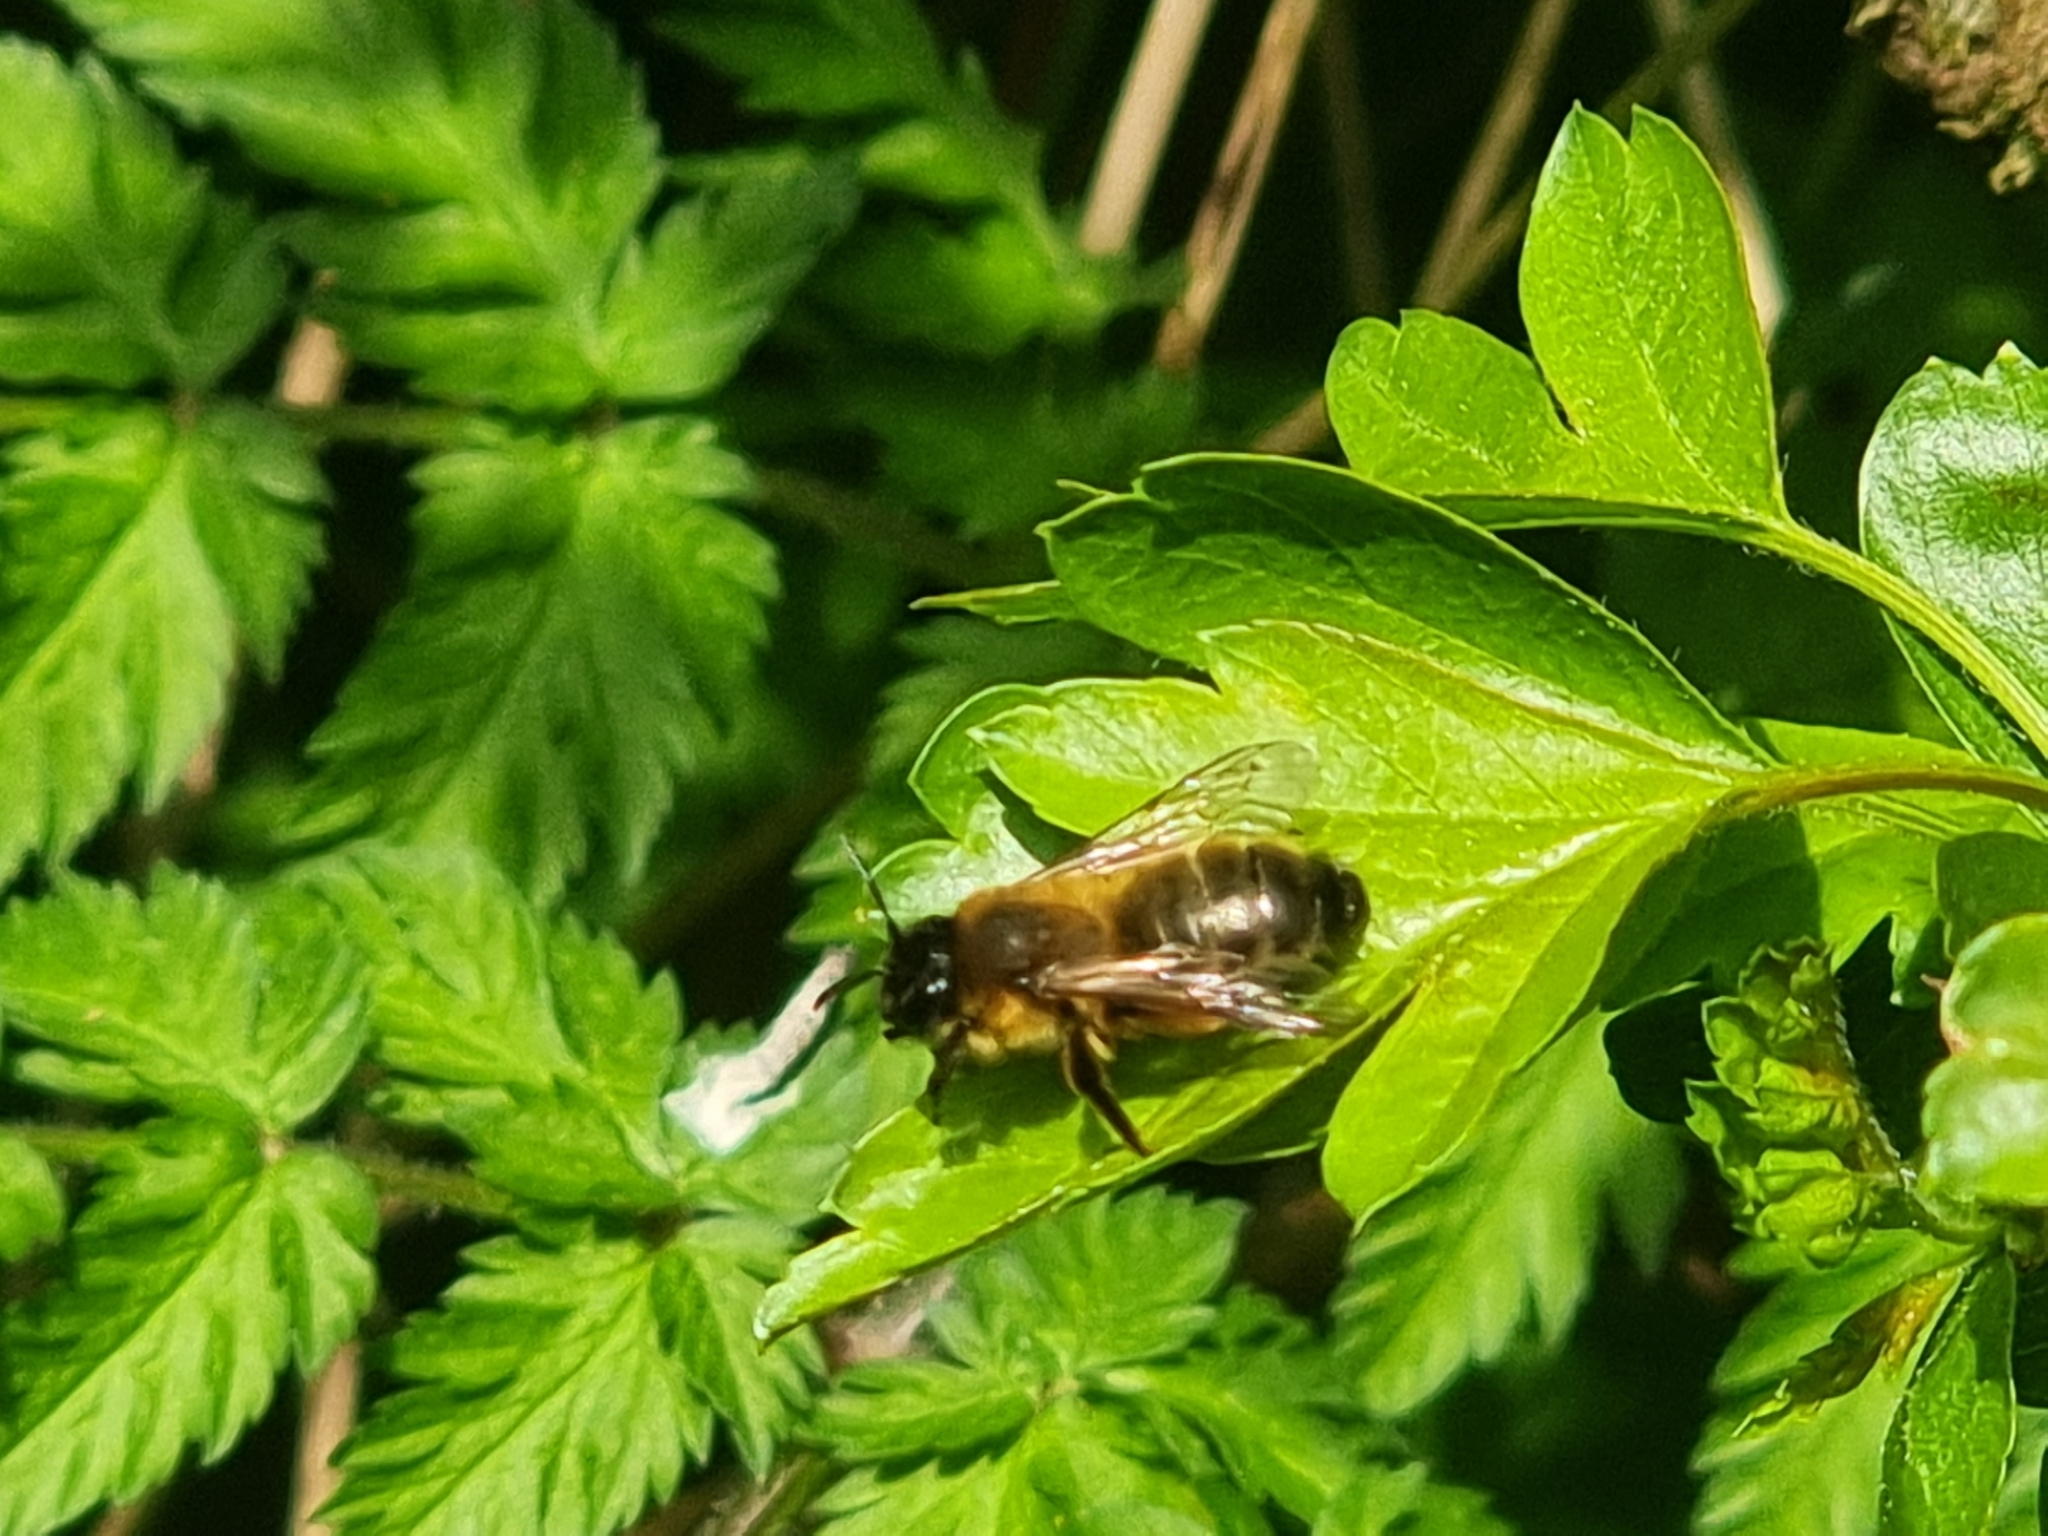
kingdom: Animalia
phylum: Arthropoda
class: Insecta
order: Hymenoptera
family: Andrenidae
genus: Andrena
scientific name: Andrena nigroaenea
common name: Buffish mining bee
